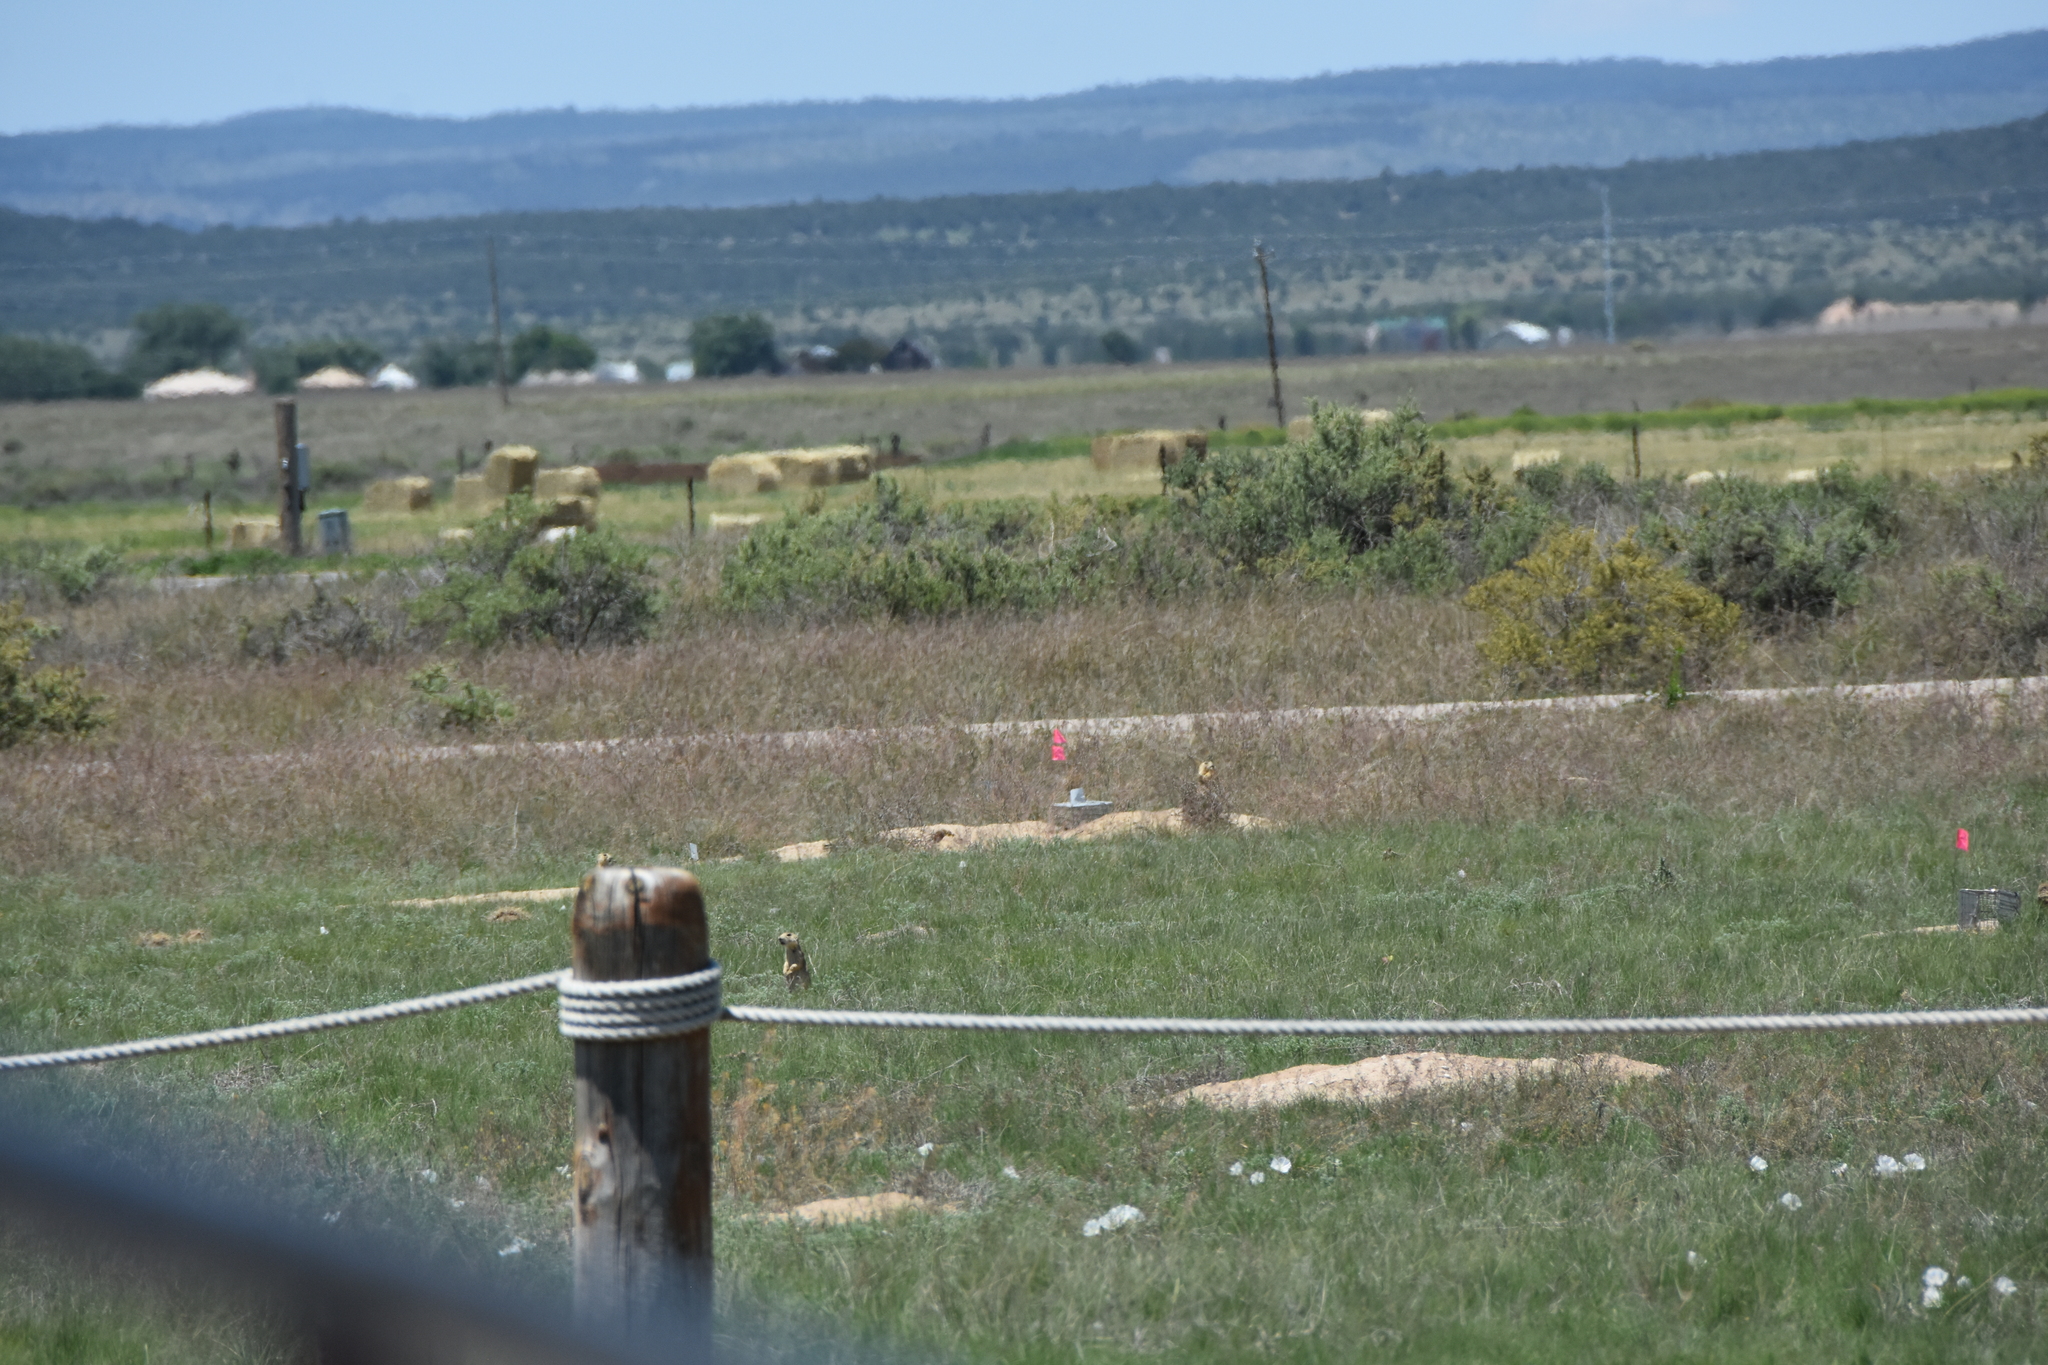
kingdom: Animalia
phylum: Chordata
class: Mammalia
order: Rodentia
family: Sciuridae
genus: Cynomys
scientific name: Cynomys gunnisoni
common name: Gunnison's prairie dog
